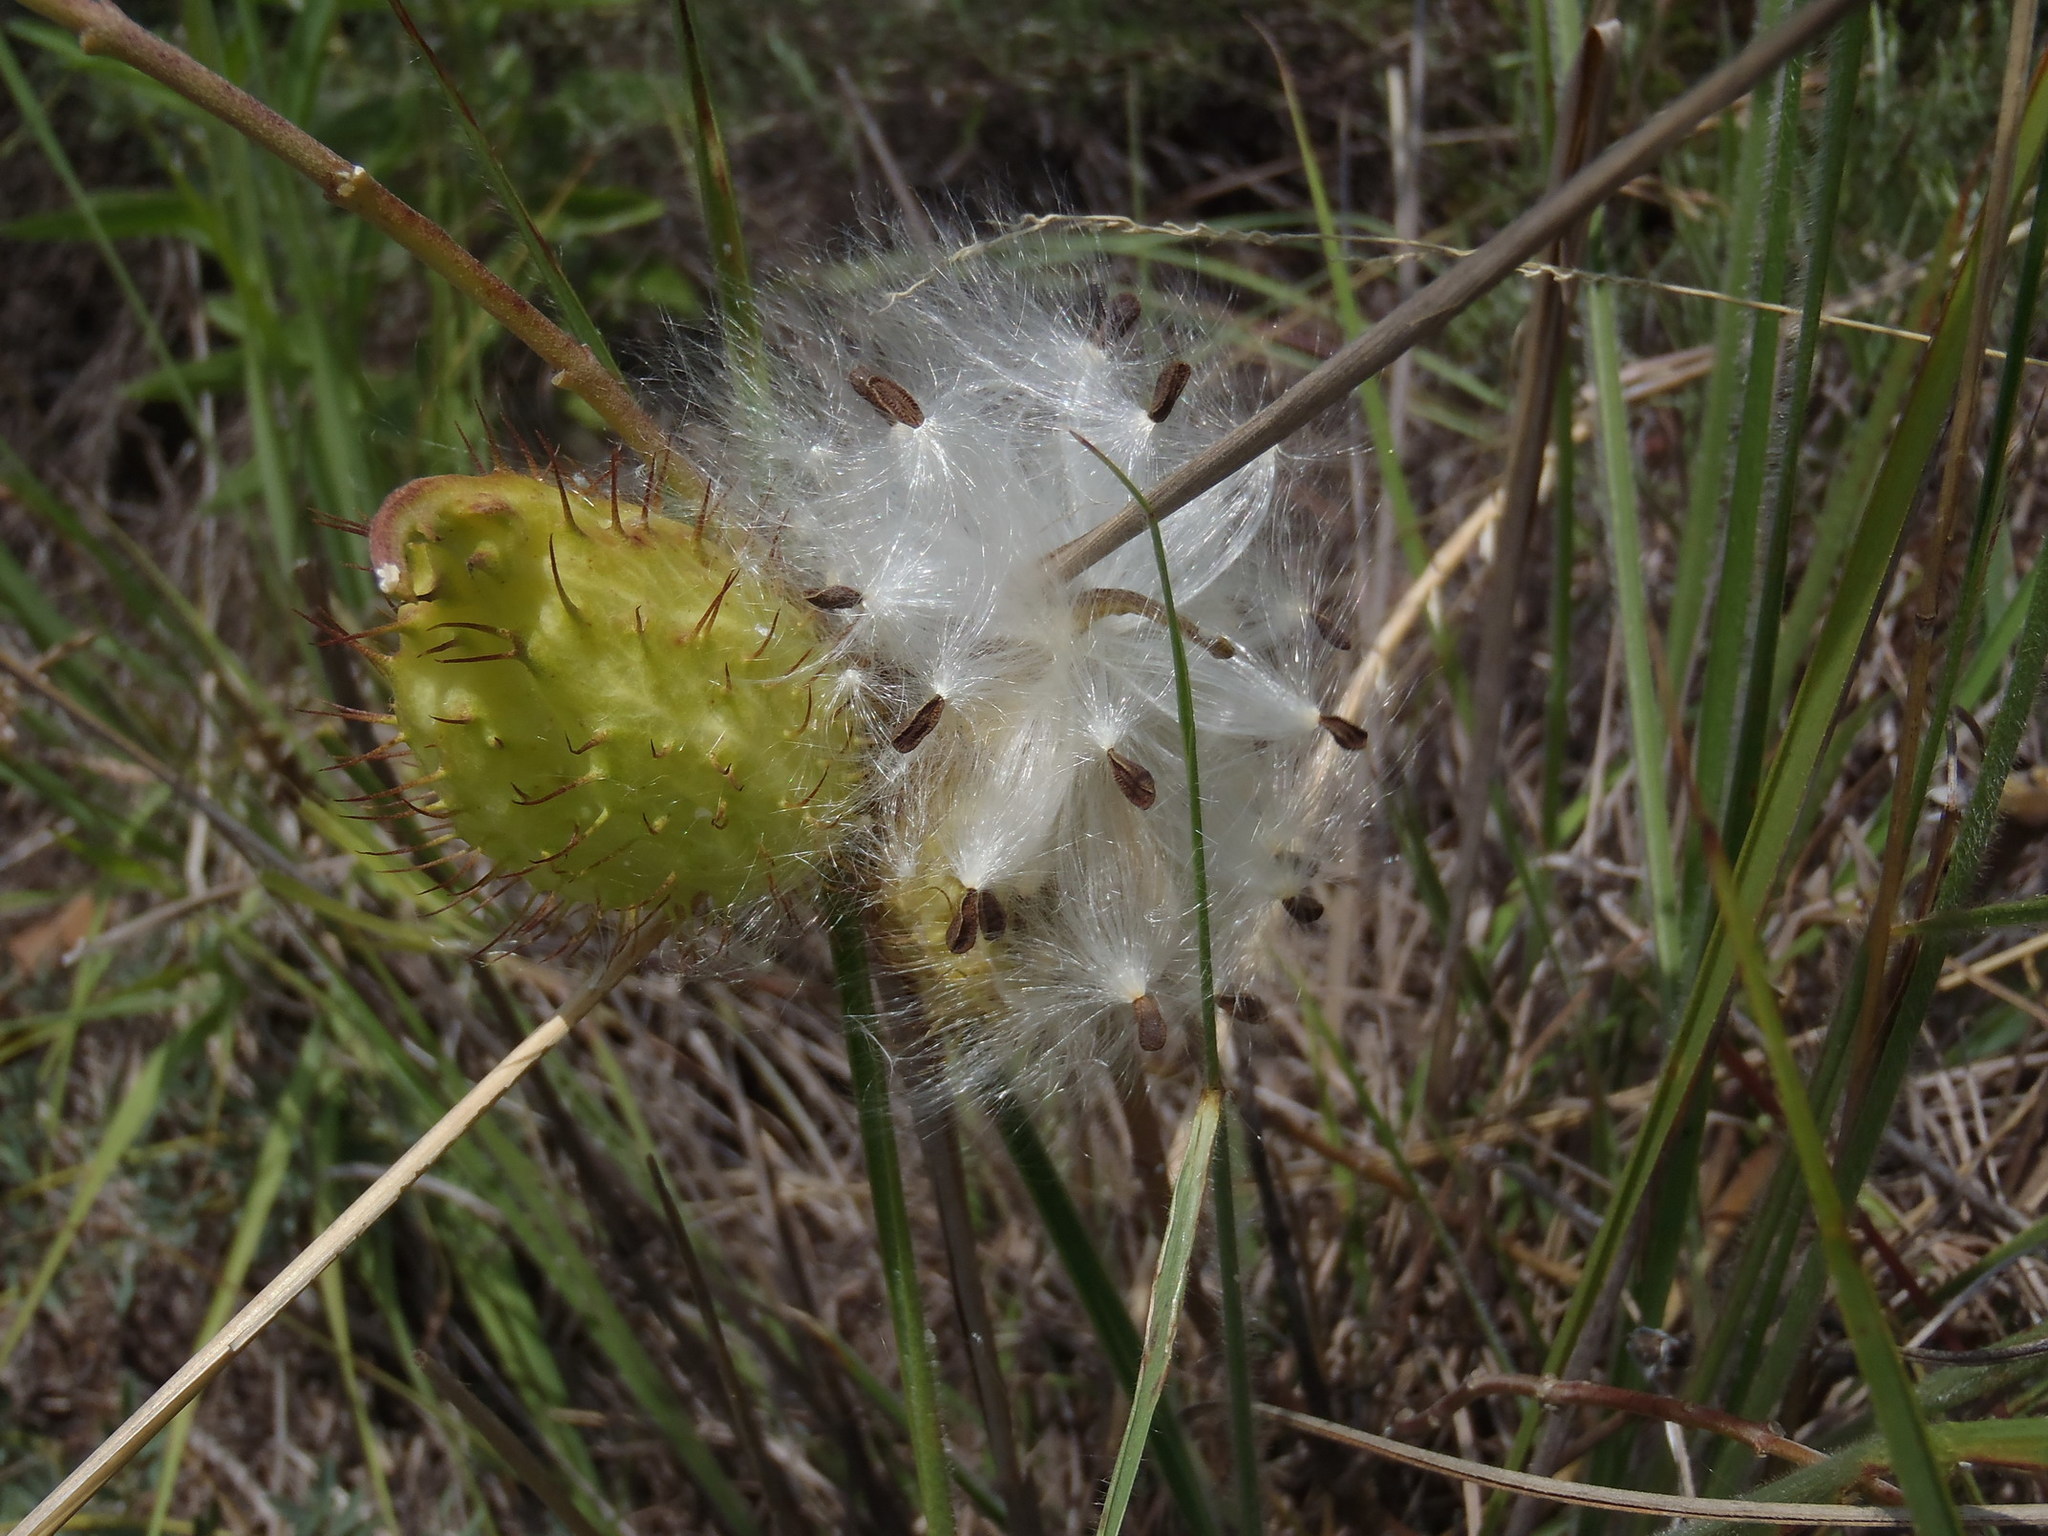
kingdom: Plantae
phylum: Tracheophyta
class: Magnoliopsida
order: Gentianales
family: Apocynaceae
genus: Gomphocarpus
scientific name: Gomphocarpus fruticosus
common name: Milkweed
